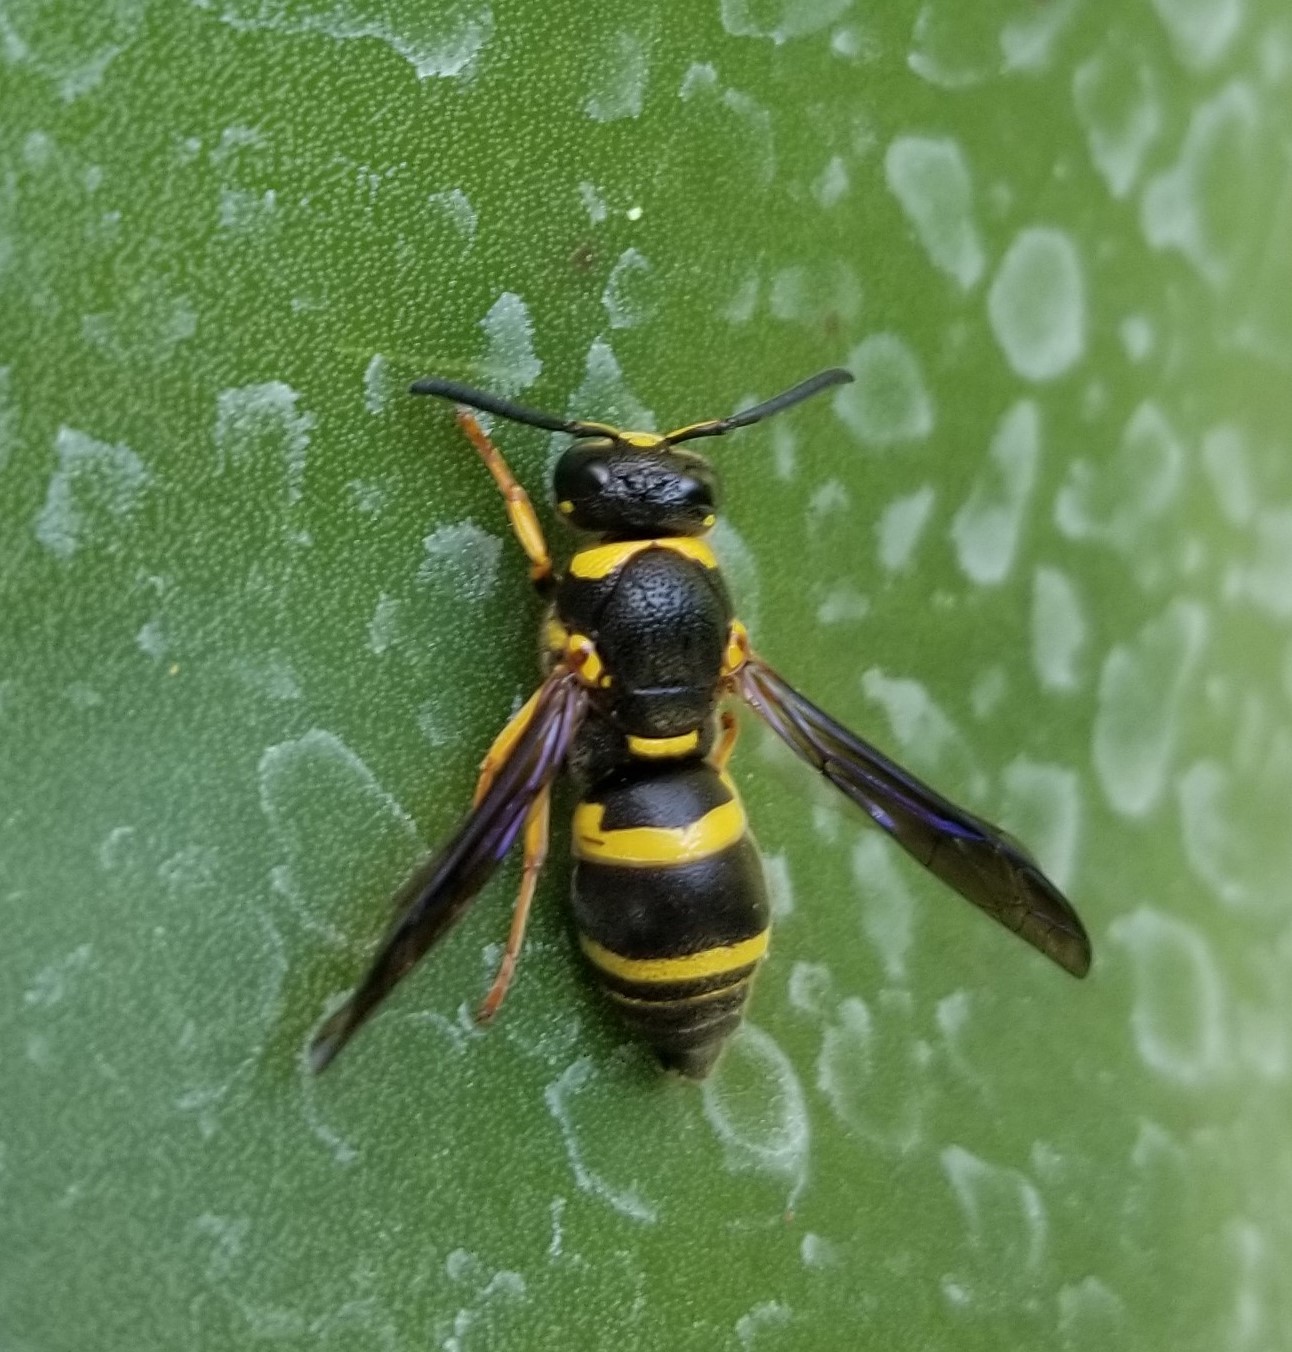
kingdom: Animalia
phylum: Arthropoda
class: Insecta
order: Hymenoptera
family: Eumenidae
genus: Euodynerus
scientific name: Euodynerus foraminatus
